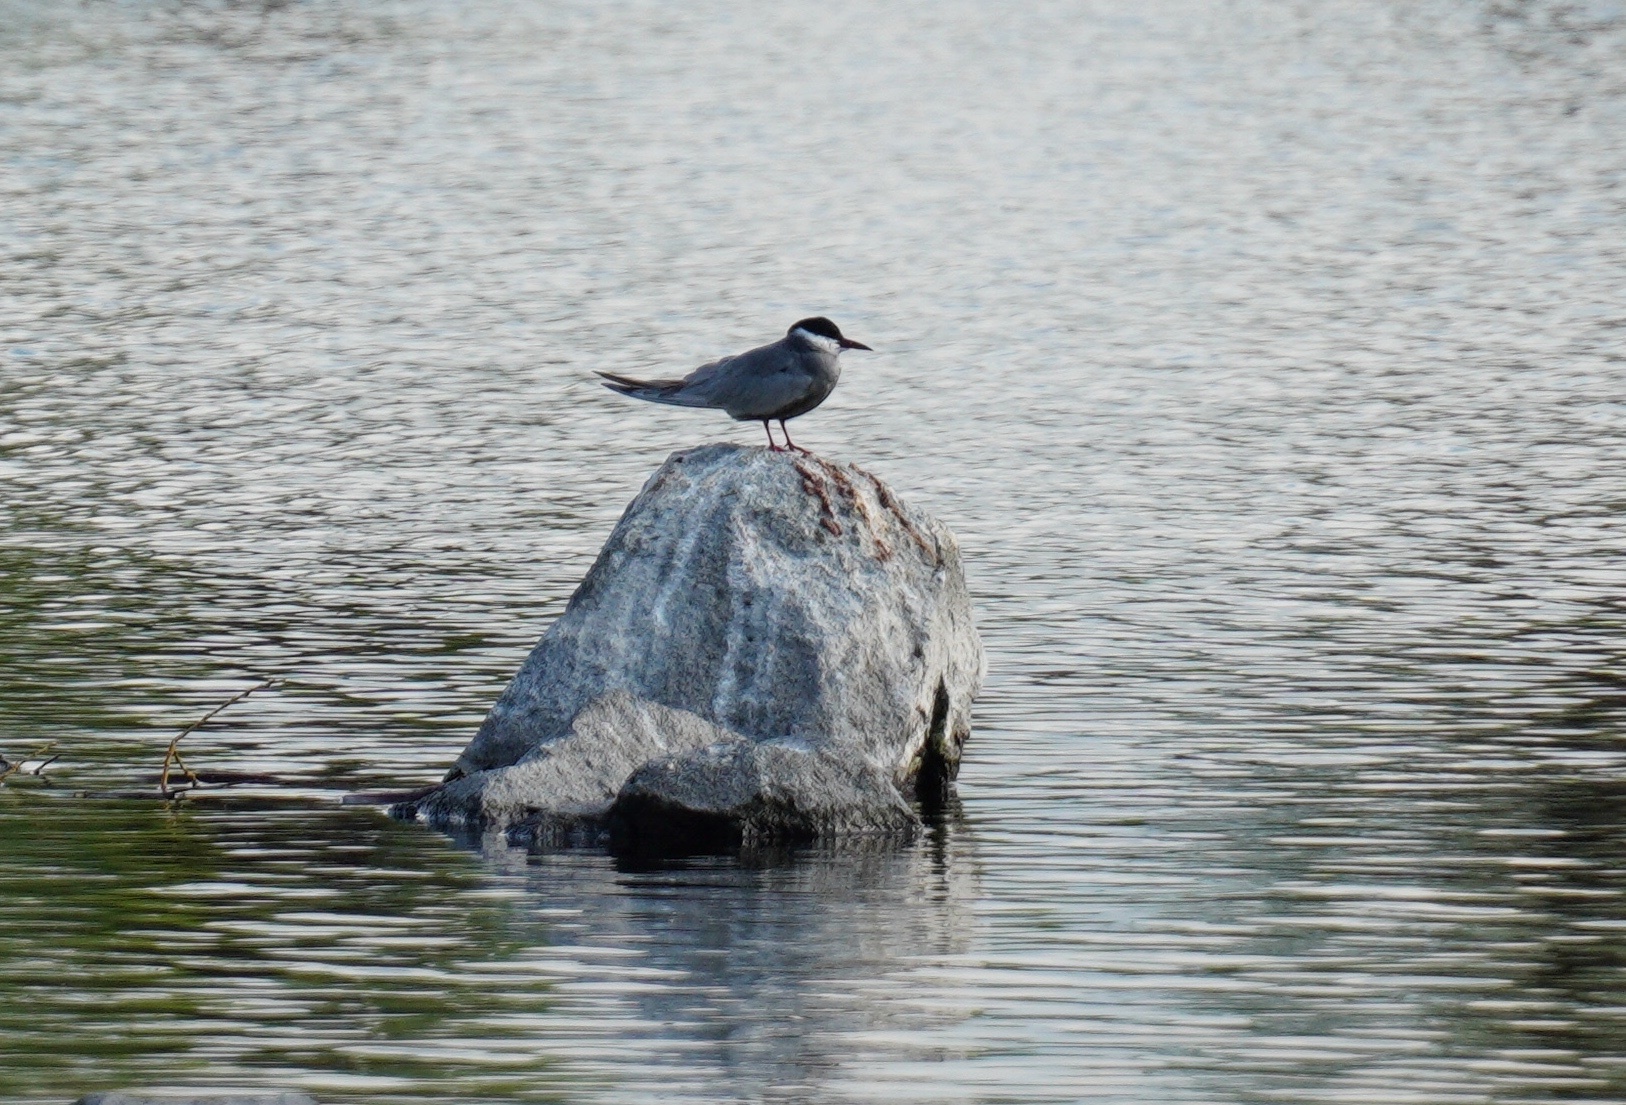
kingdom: Animalia
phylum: Chordata
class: Aves
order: Charadriiformes
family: Laridae
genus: Chlidonias
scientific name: Chlidonias hybrida
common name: Whiskered tern
